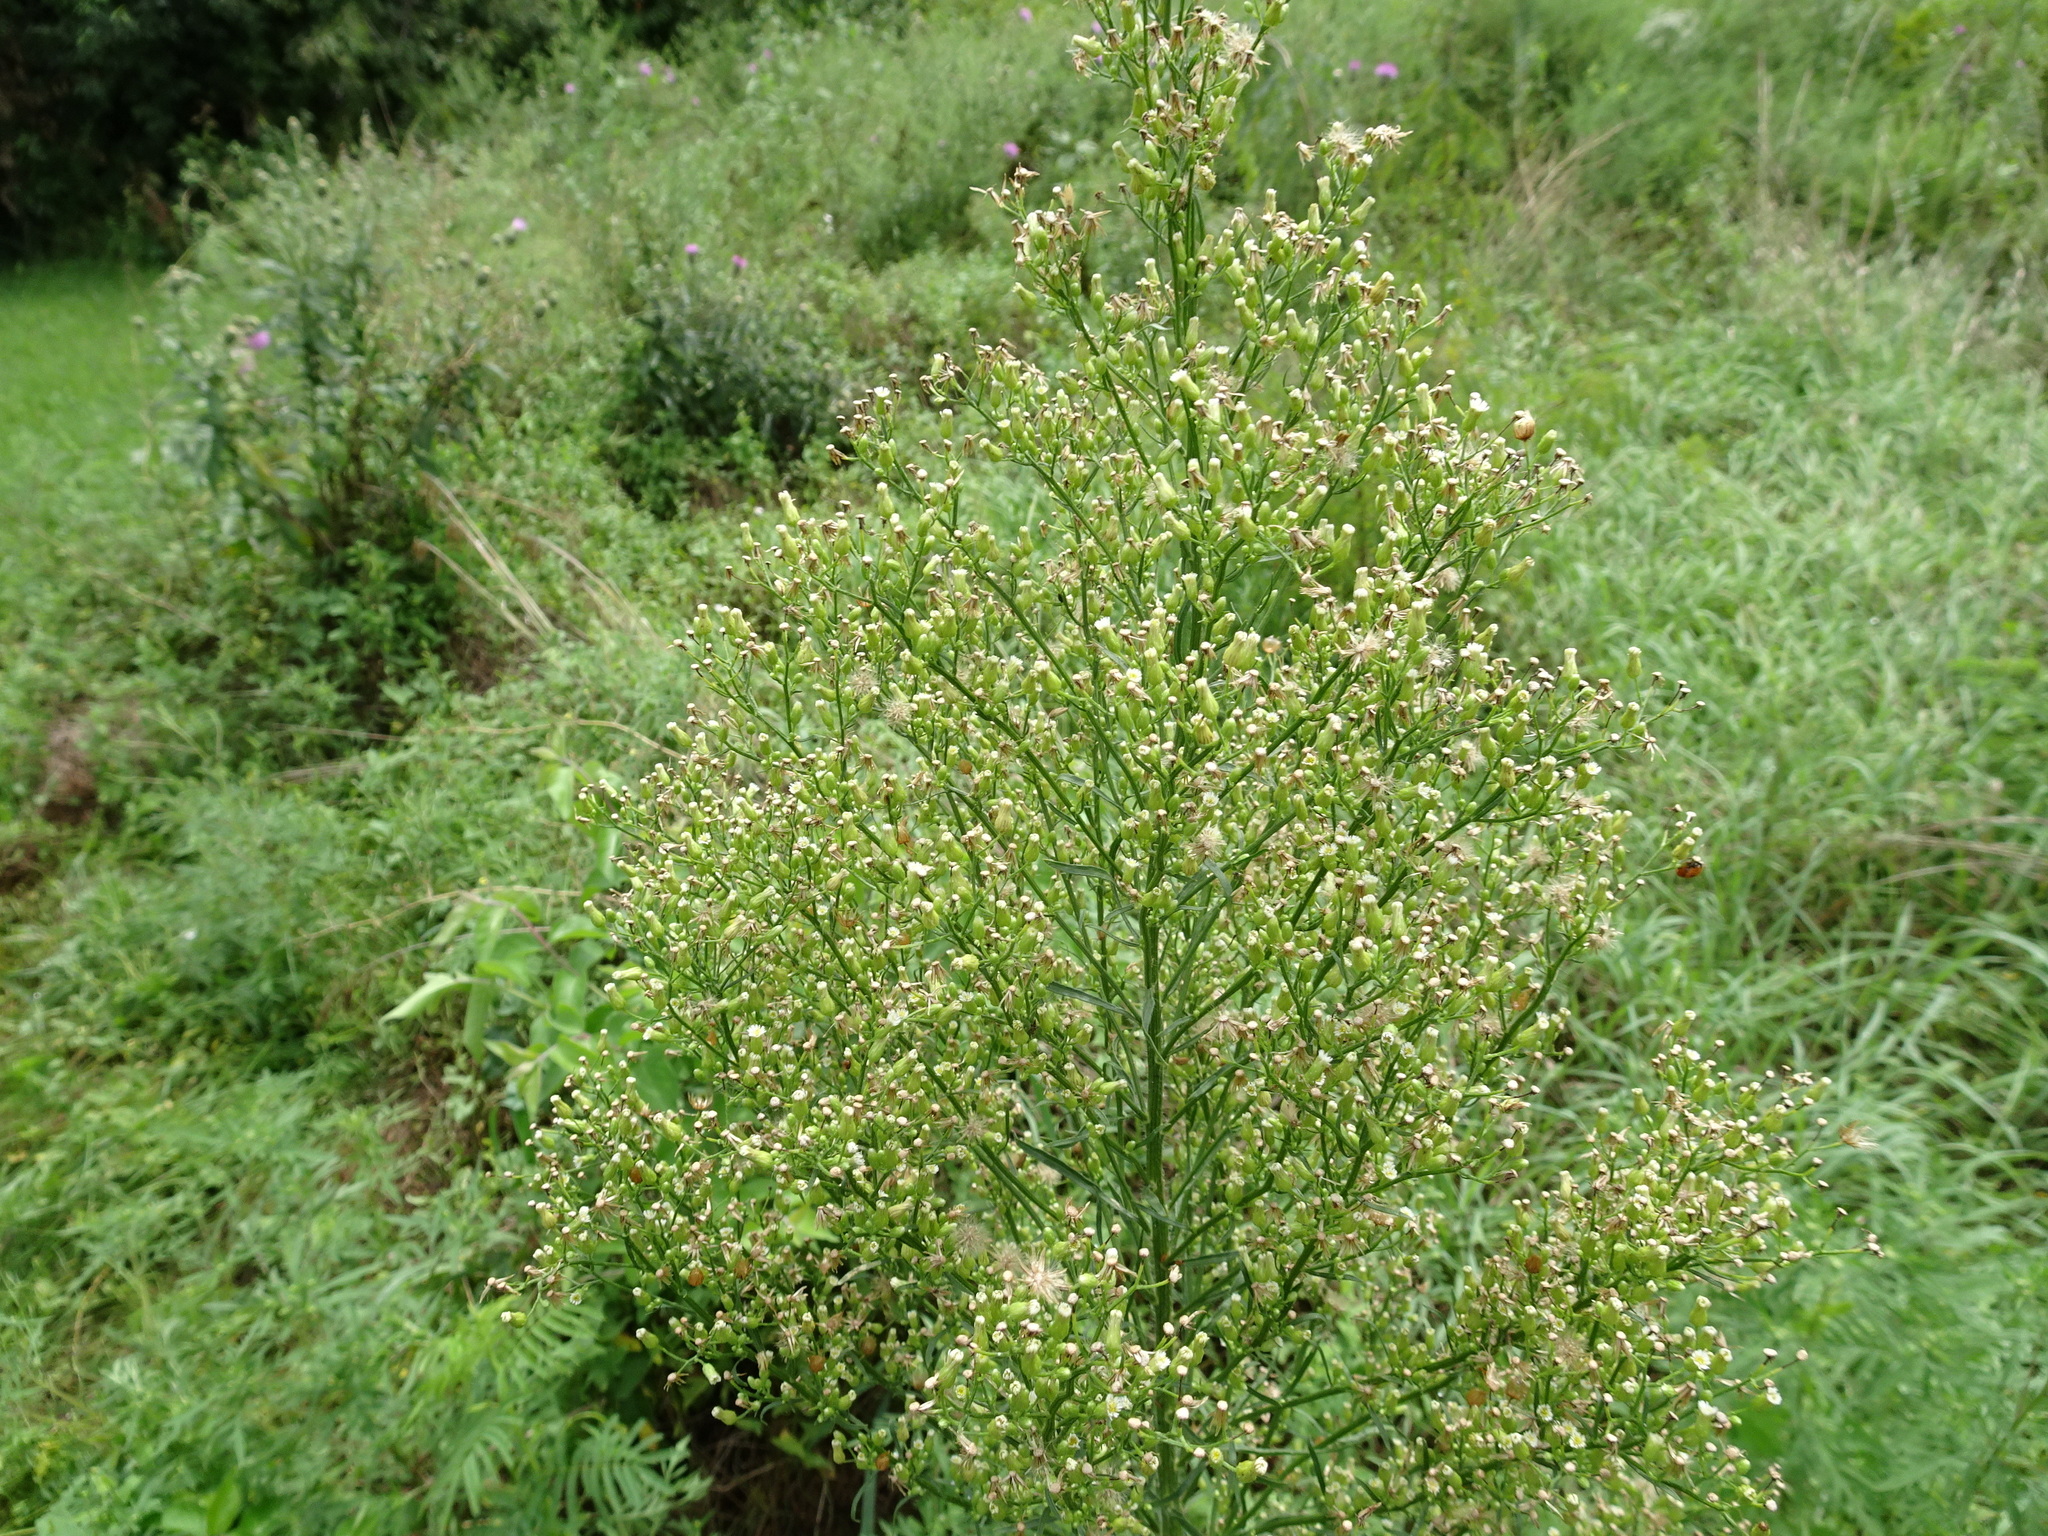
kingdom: Plantae
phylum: Tracheophyta
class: Magnoliopsida
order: Asterales
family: Asteraceae
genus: Erigeron
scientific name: Erigeron canadensis
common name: Canadian fleabane
